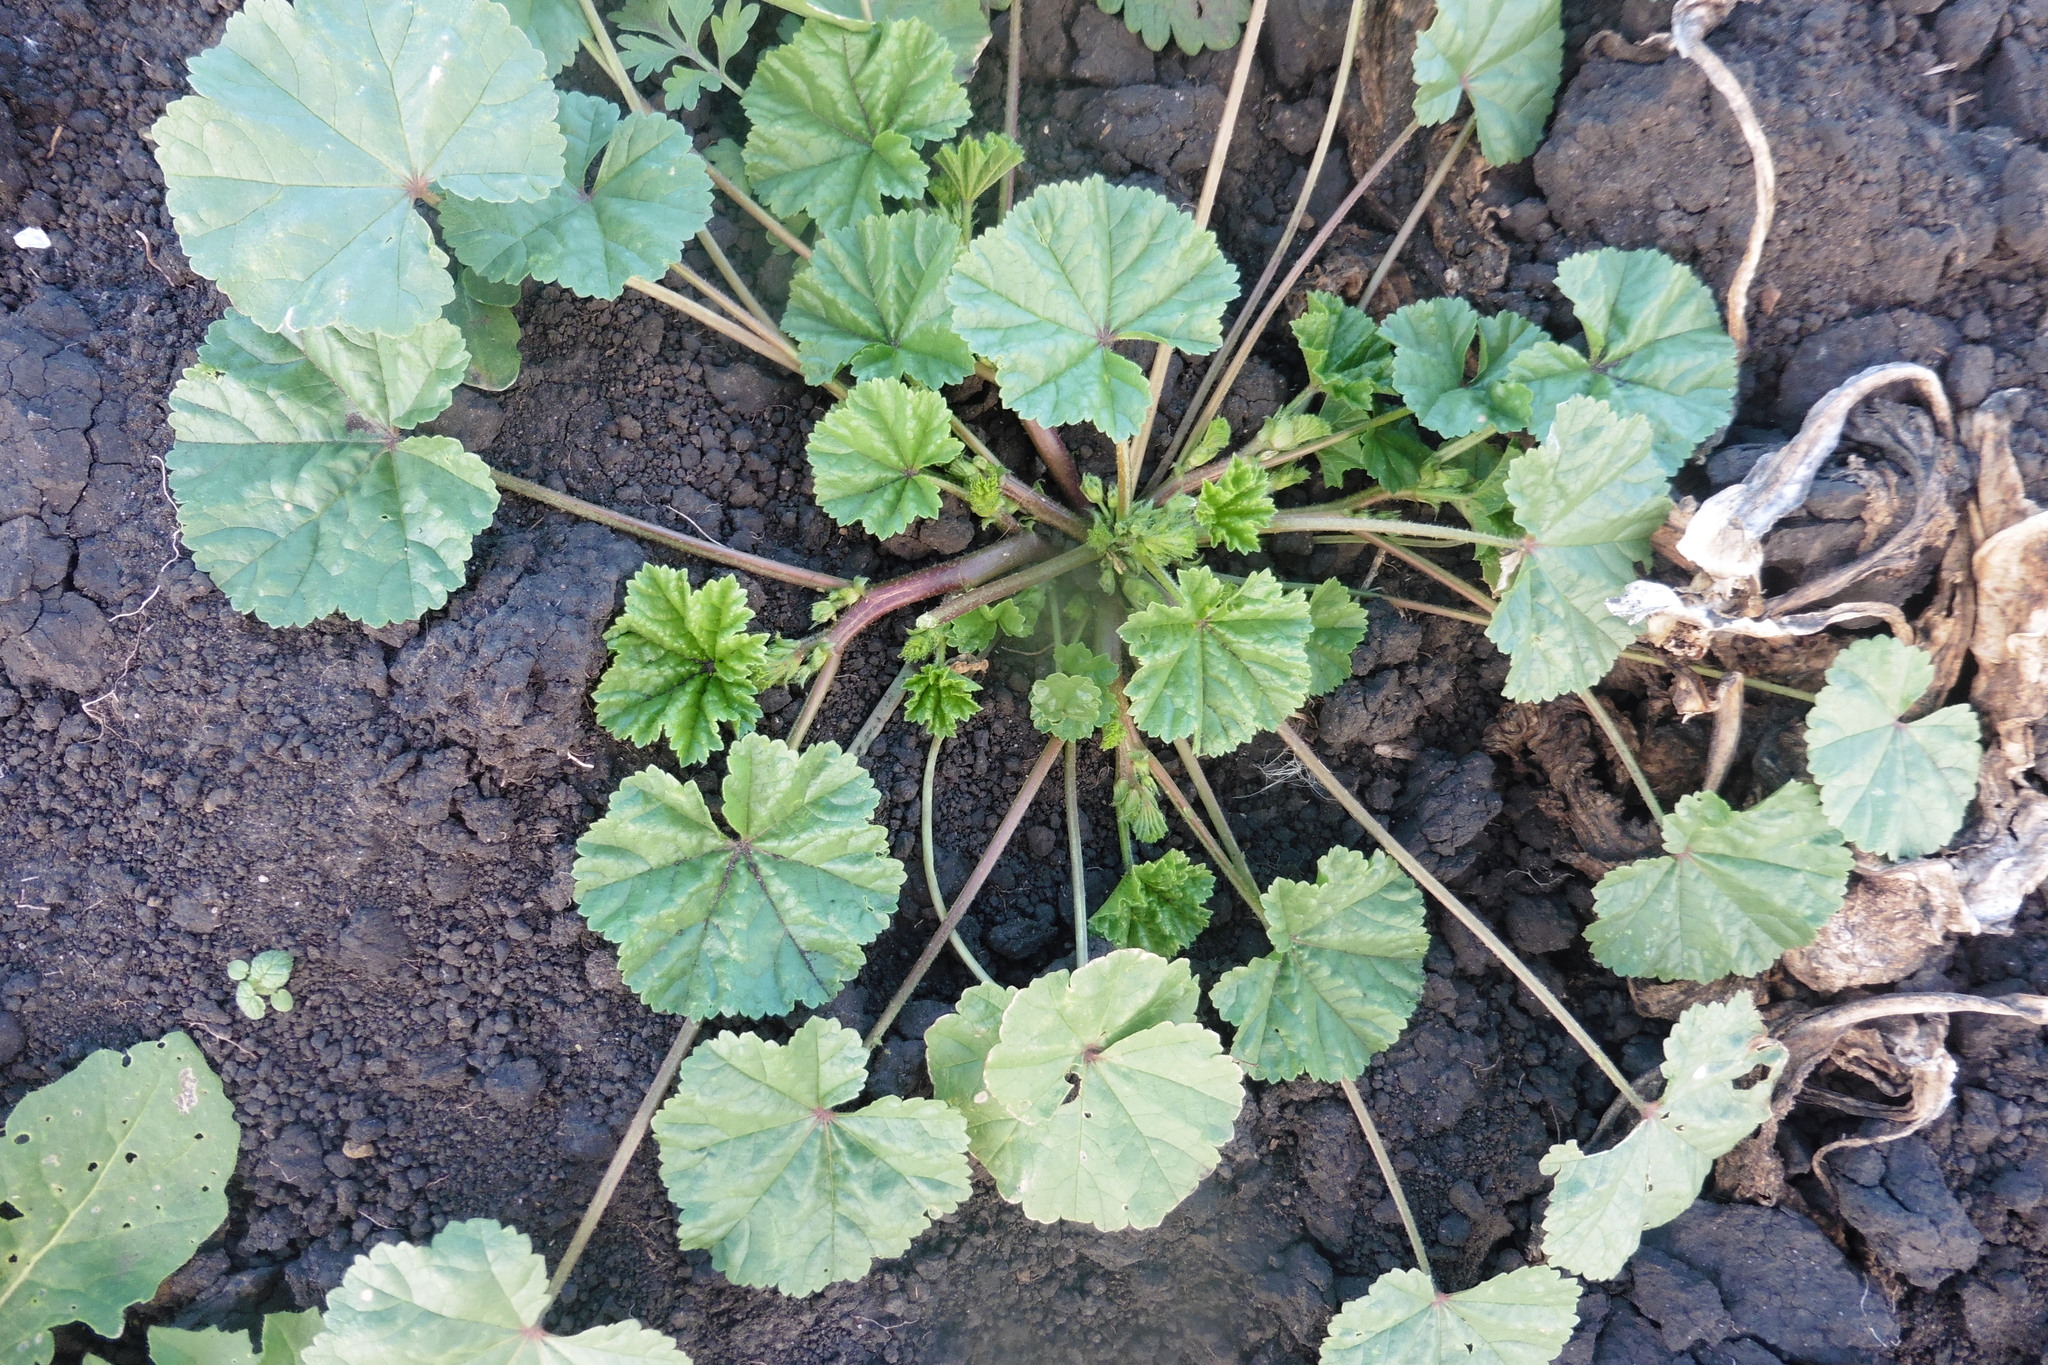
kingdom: Plantae
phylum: Tracheophyta
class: Magnoliopsida
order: Malvales
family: Malvaceae
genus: Malva
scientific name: Malva pusilla
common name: Small mallow
